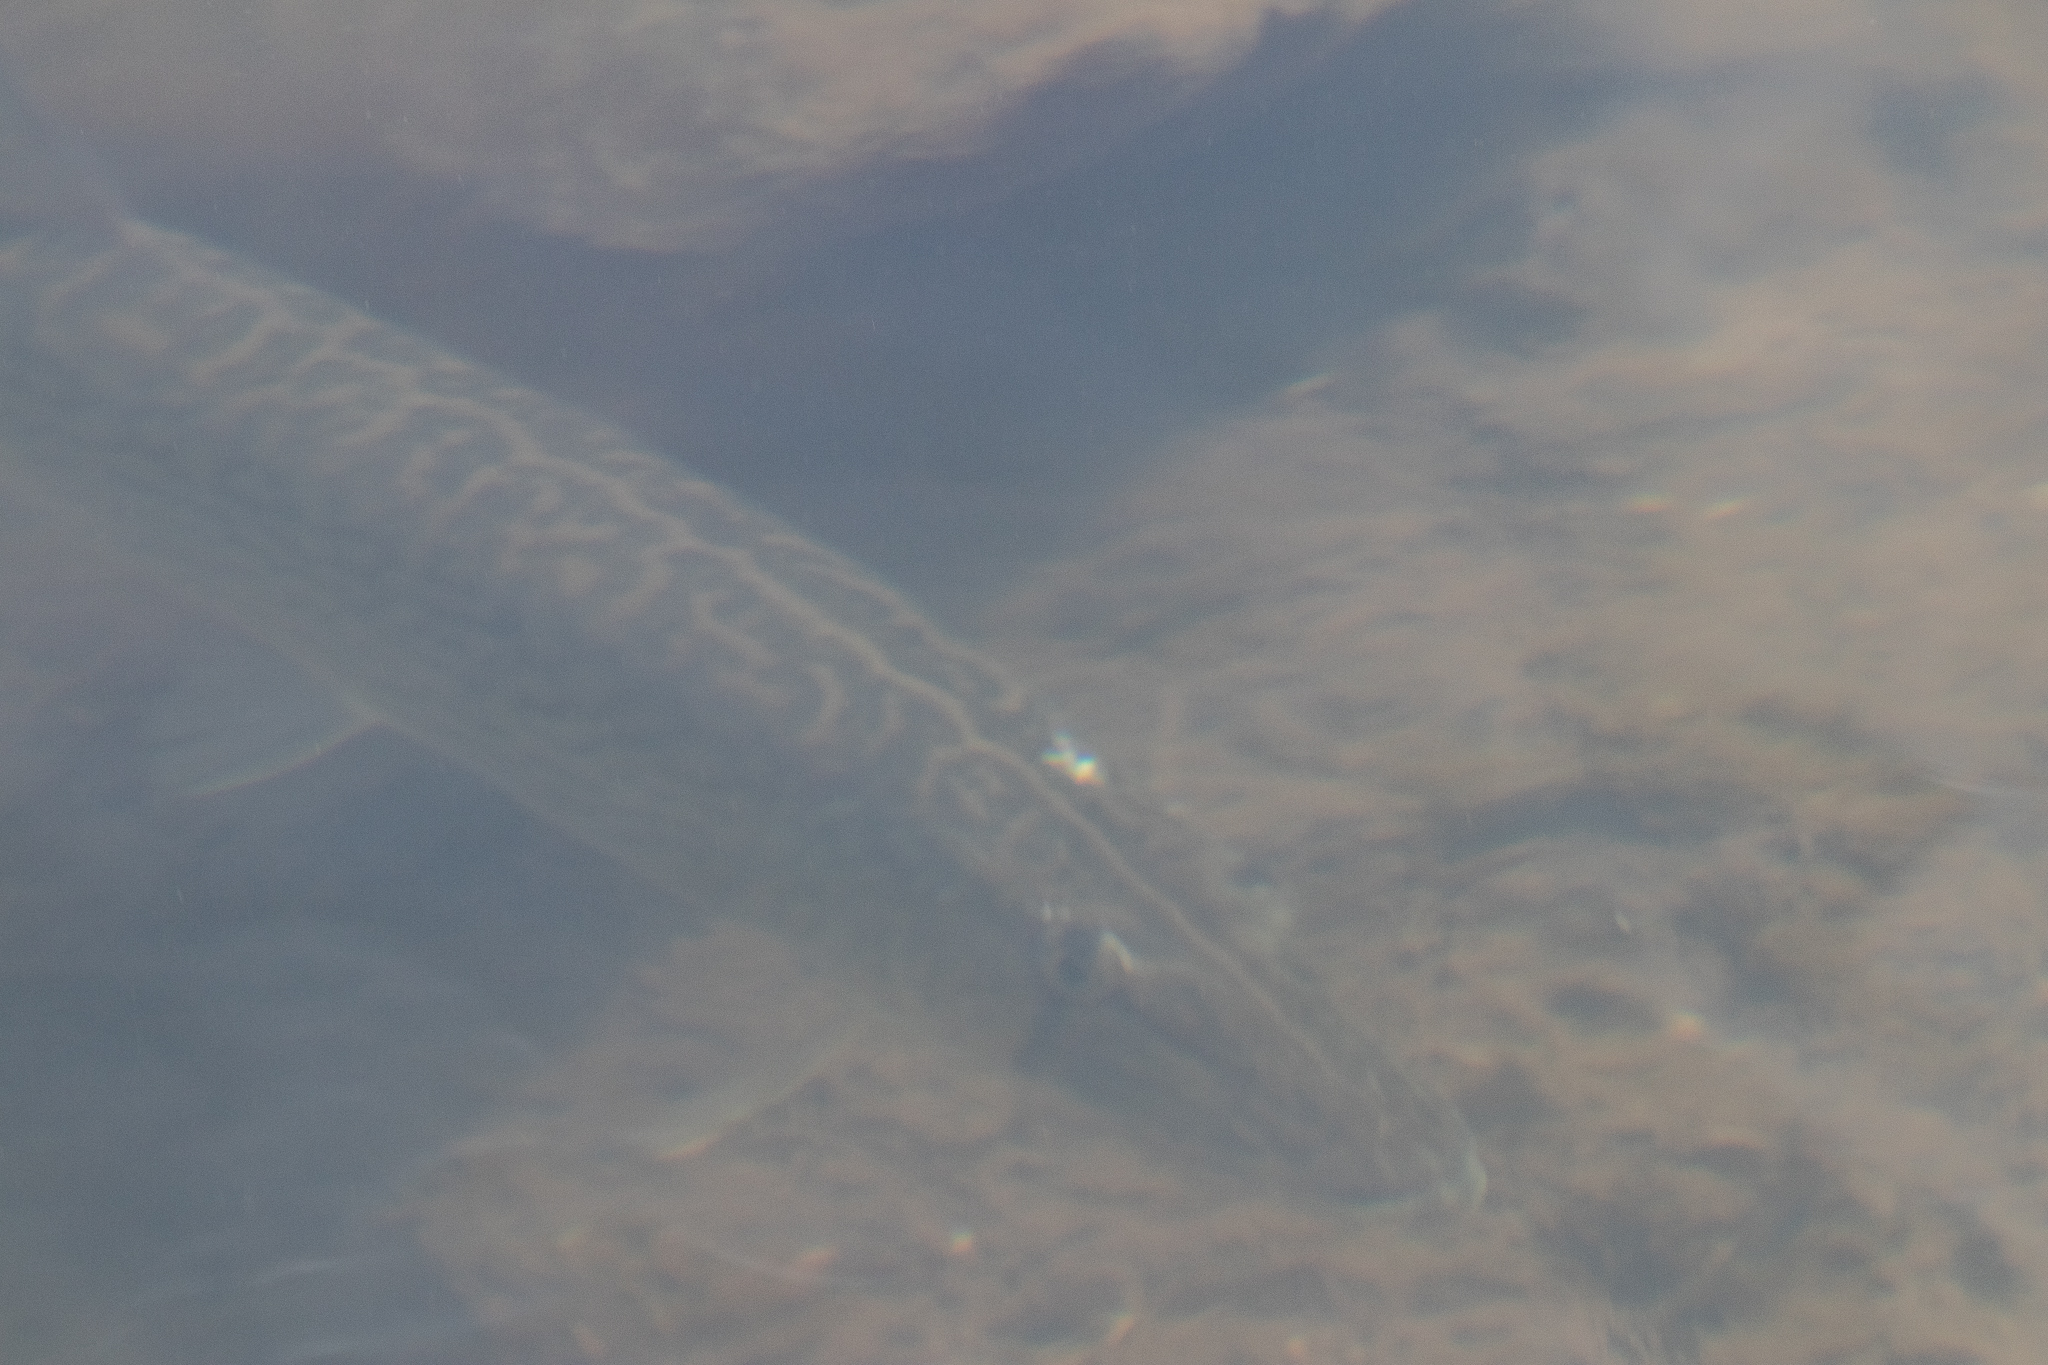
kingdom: Animalia
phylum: Chordata
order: Esociformes
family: Esocidae
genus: Esox
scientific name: Esox niger
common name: Chain pickerel
